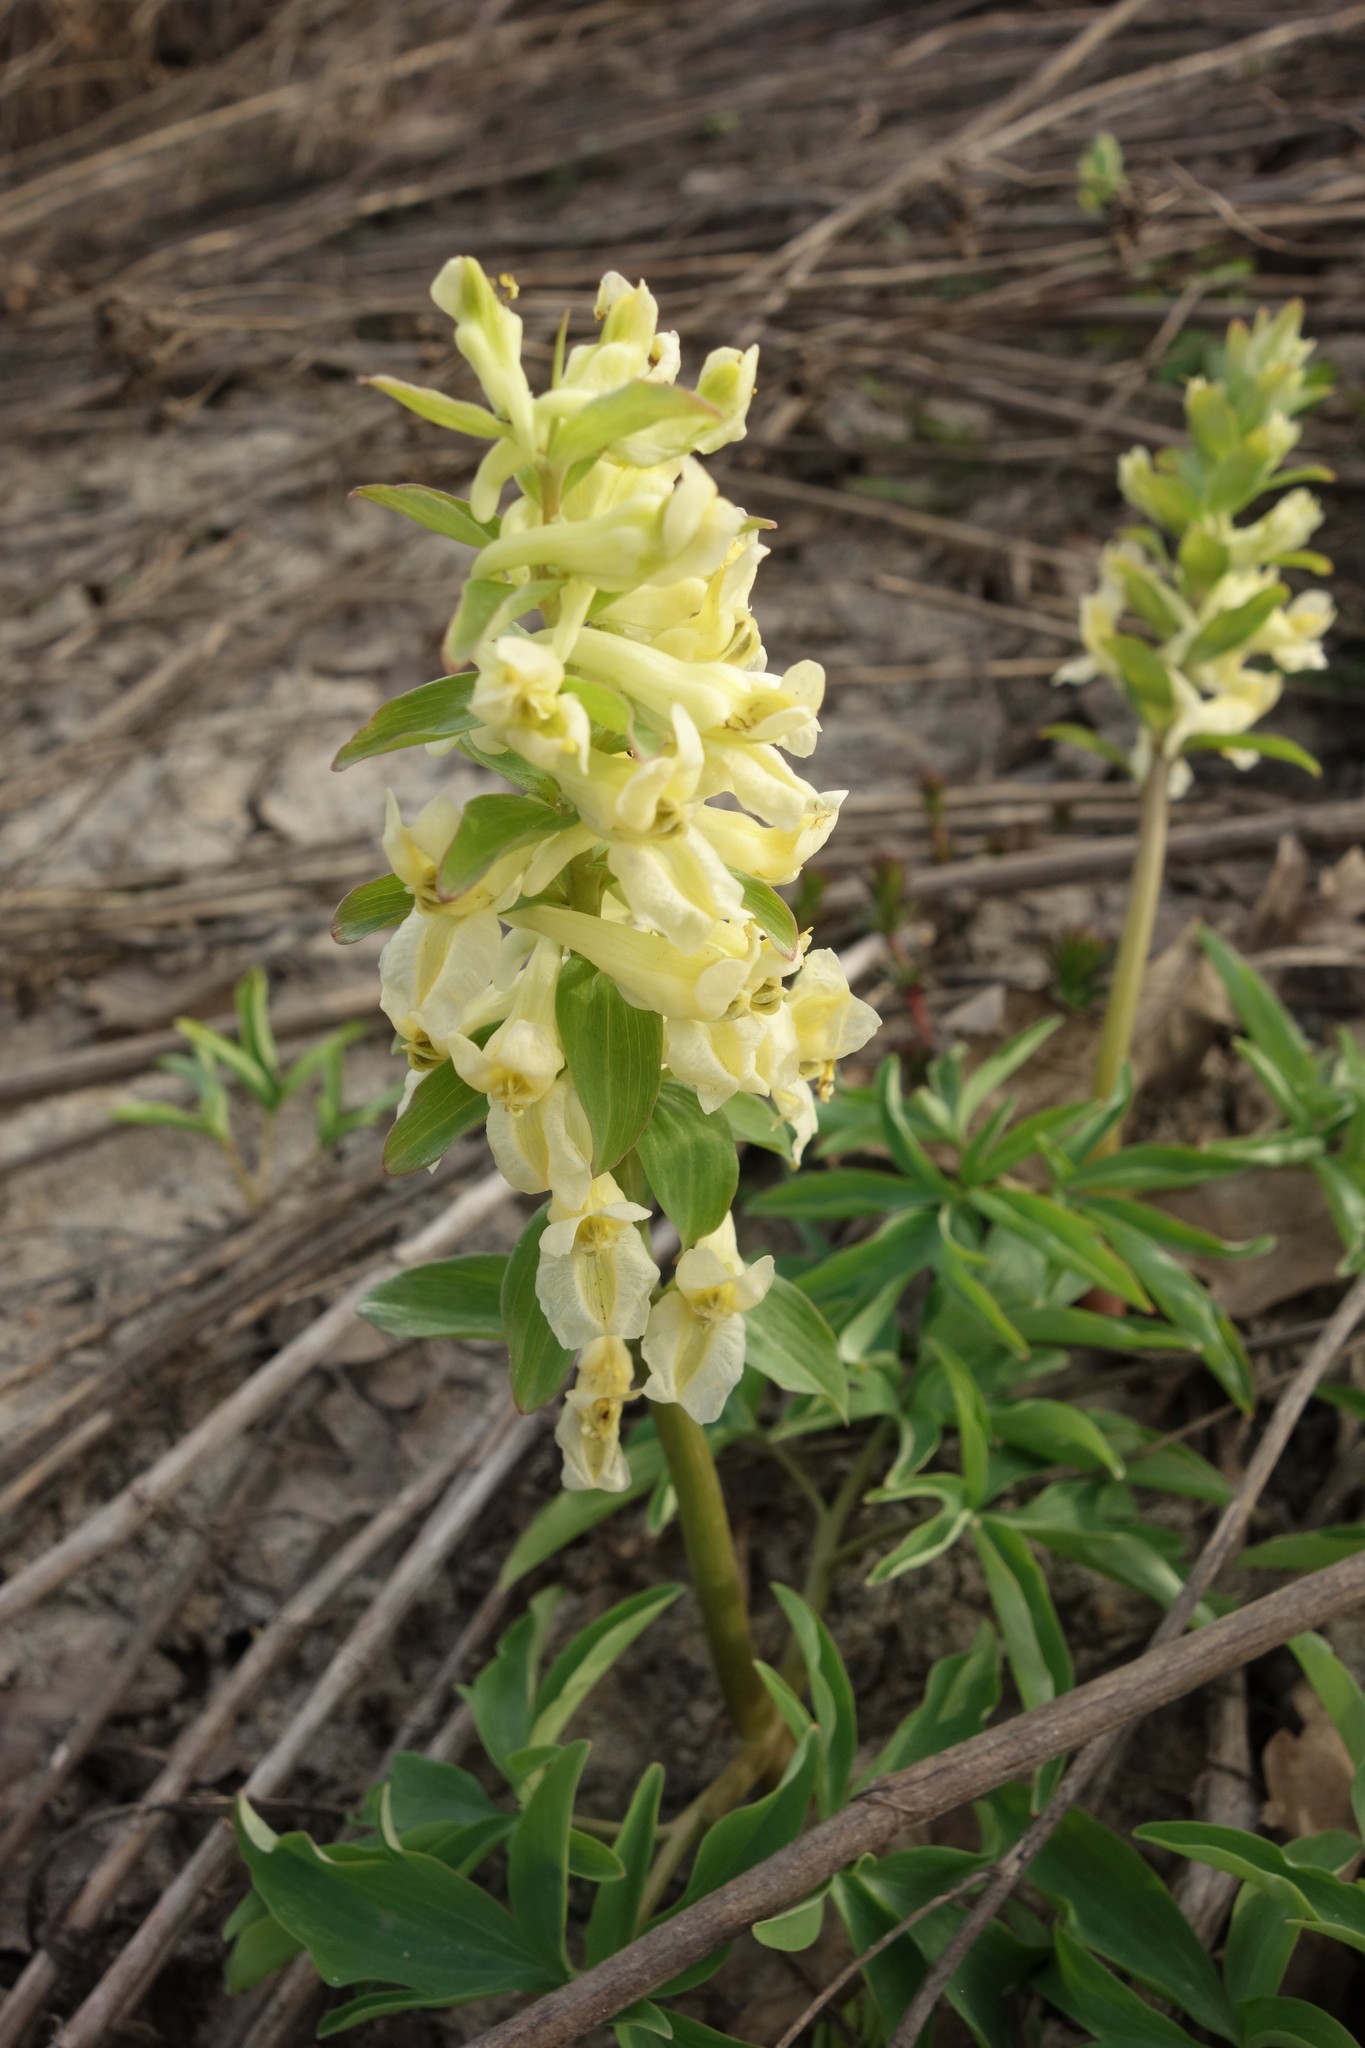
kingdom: Plantae
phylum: Tracheophyta
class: Magnoliopsida
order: Ranunculales
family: Papaveraceae
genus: Corydalis
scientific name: Corydalis cava
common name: Hollowroot
